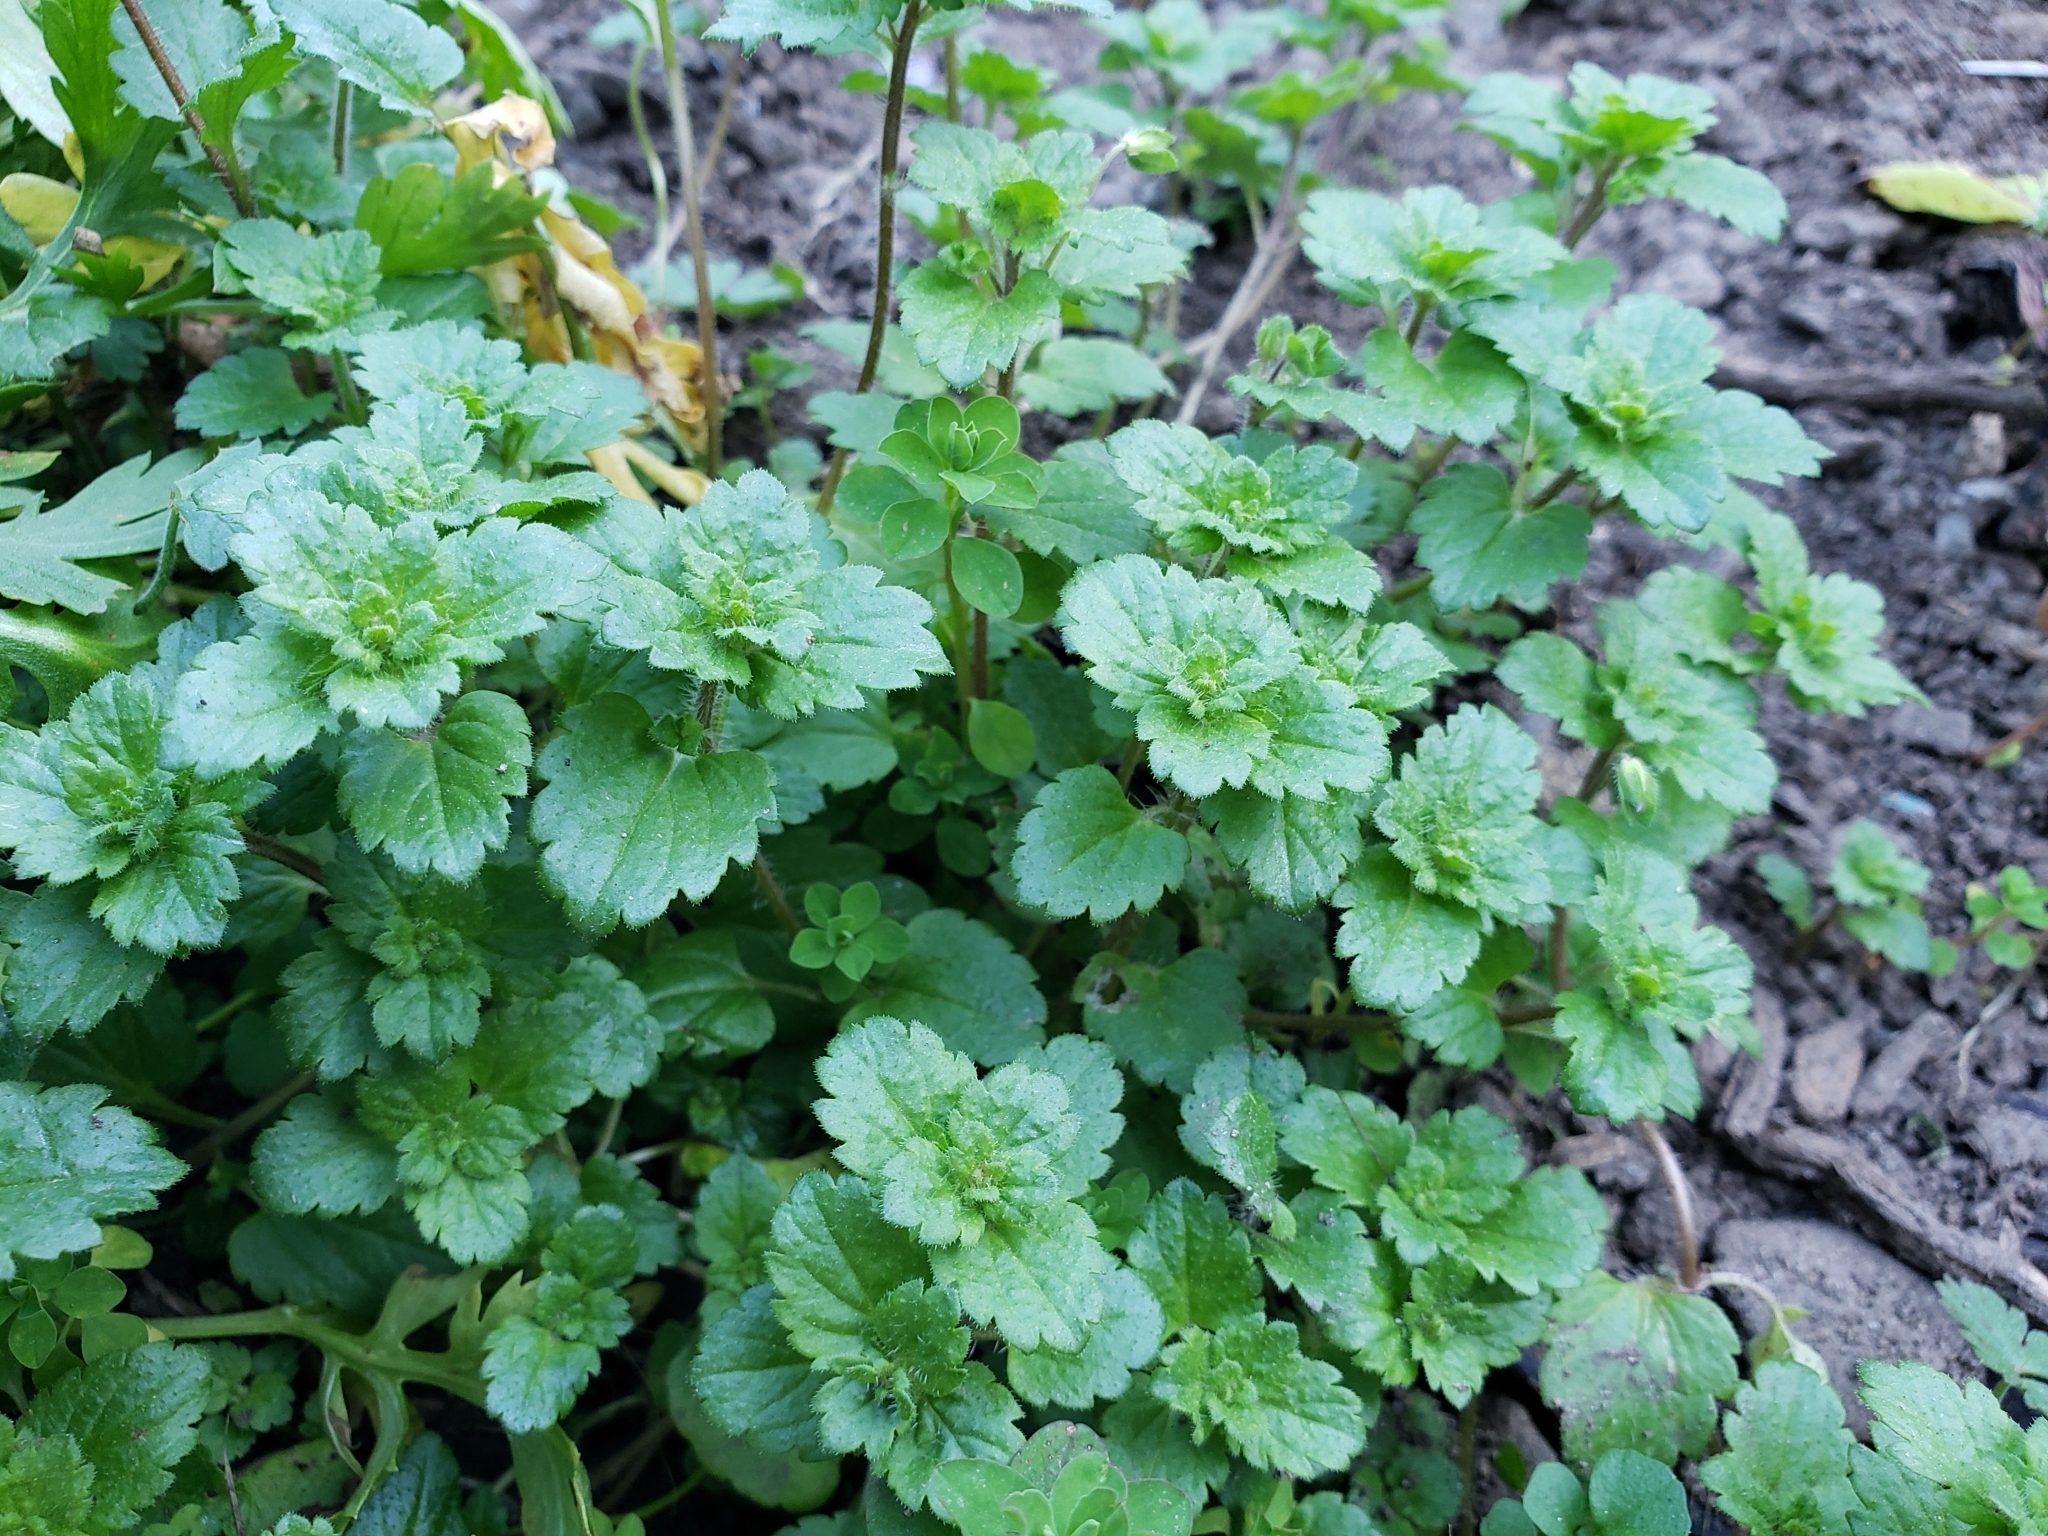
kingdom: Plantae
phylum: Tracheophyta
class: Magnoliopsida
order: Lamiales
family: Plantaginaceae
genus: Veronica
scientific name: Veronica persica
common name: Common field-speedwell
